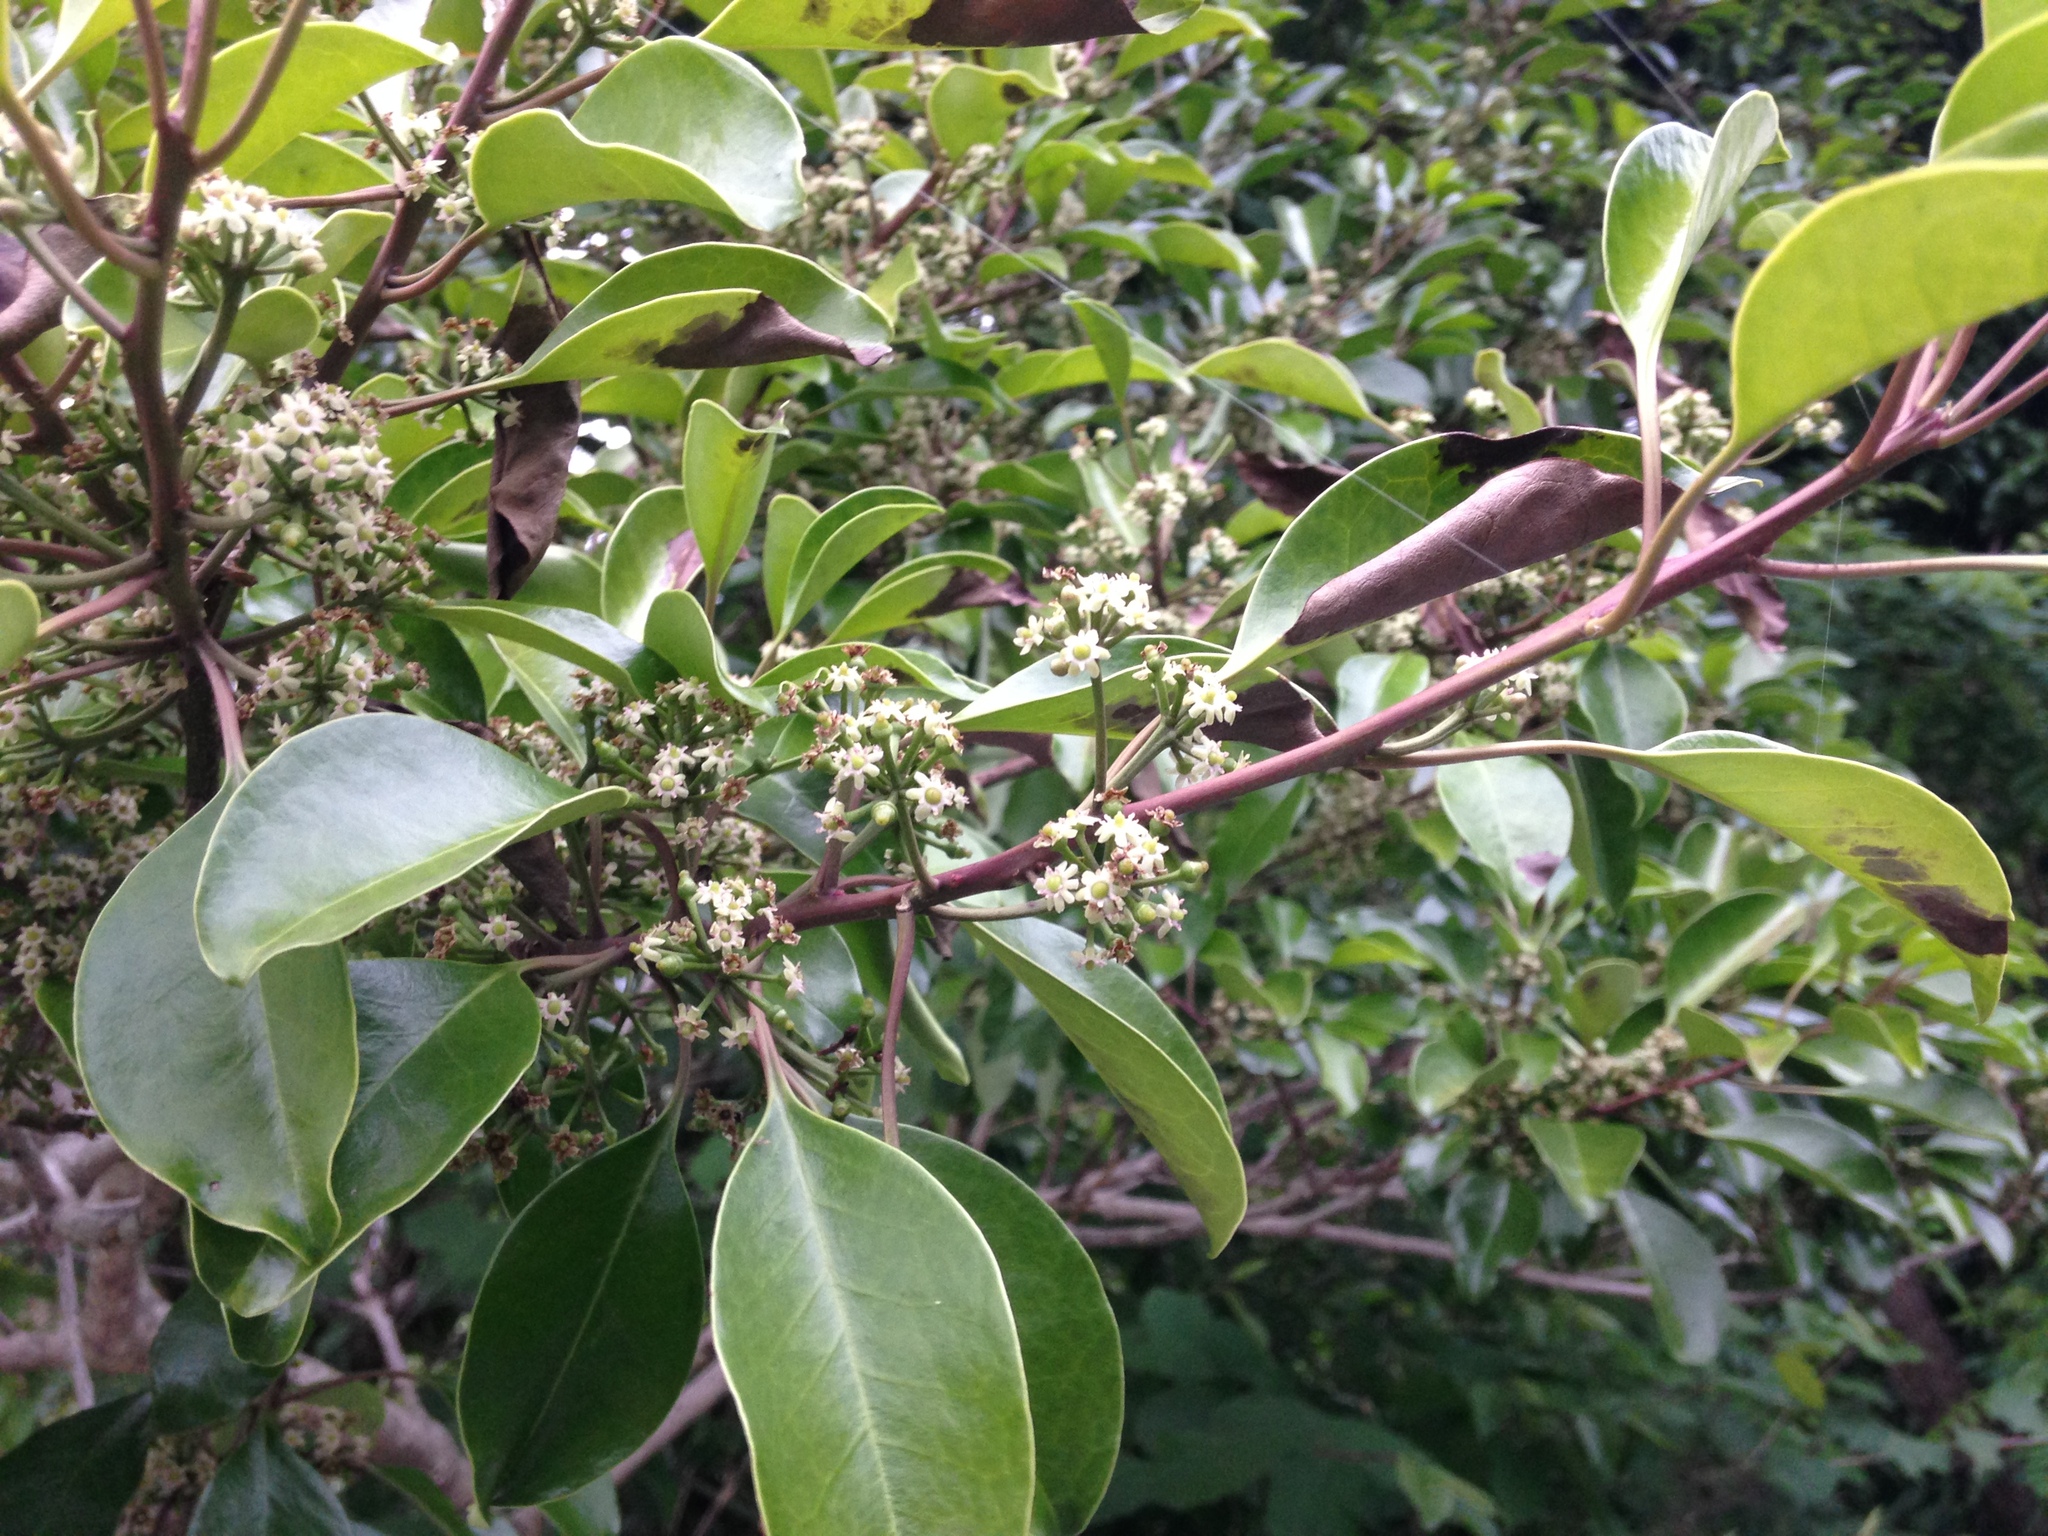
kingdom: Plantae
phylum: Tracheophyta
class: Magnoliopsida
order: Aquifoliales
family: Aquifoliaceae
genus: Ilex
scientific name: Ilex rotunda
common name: Kurogane holly
